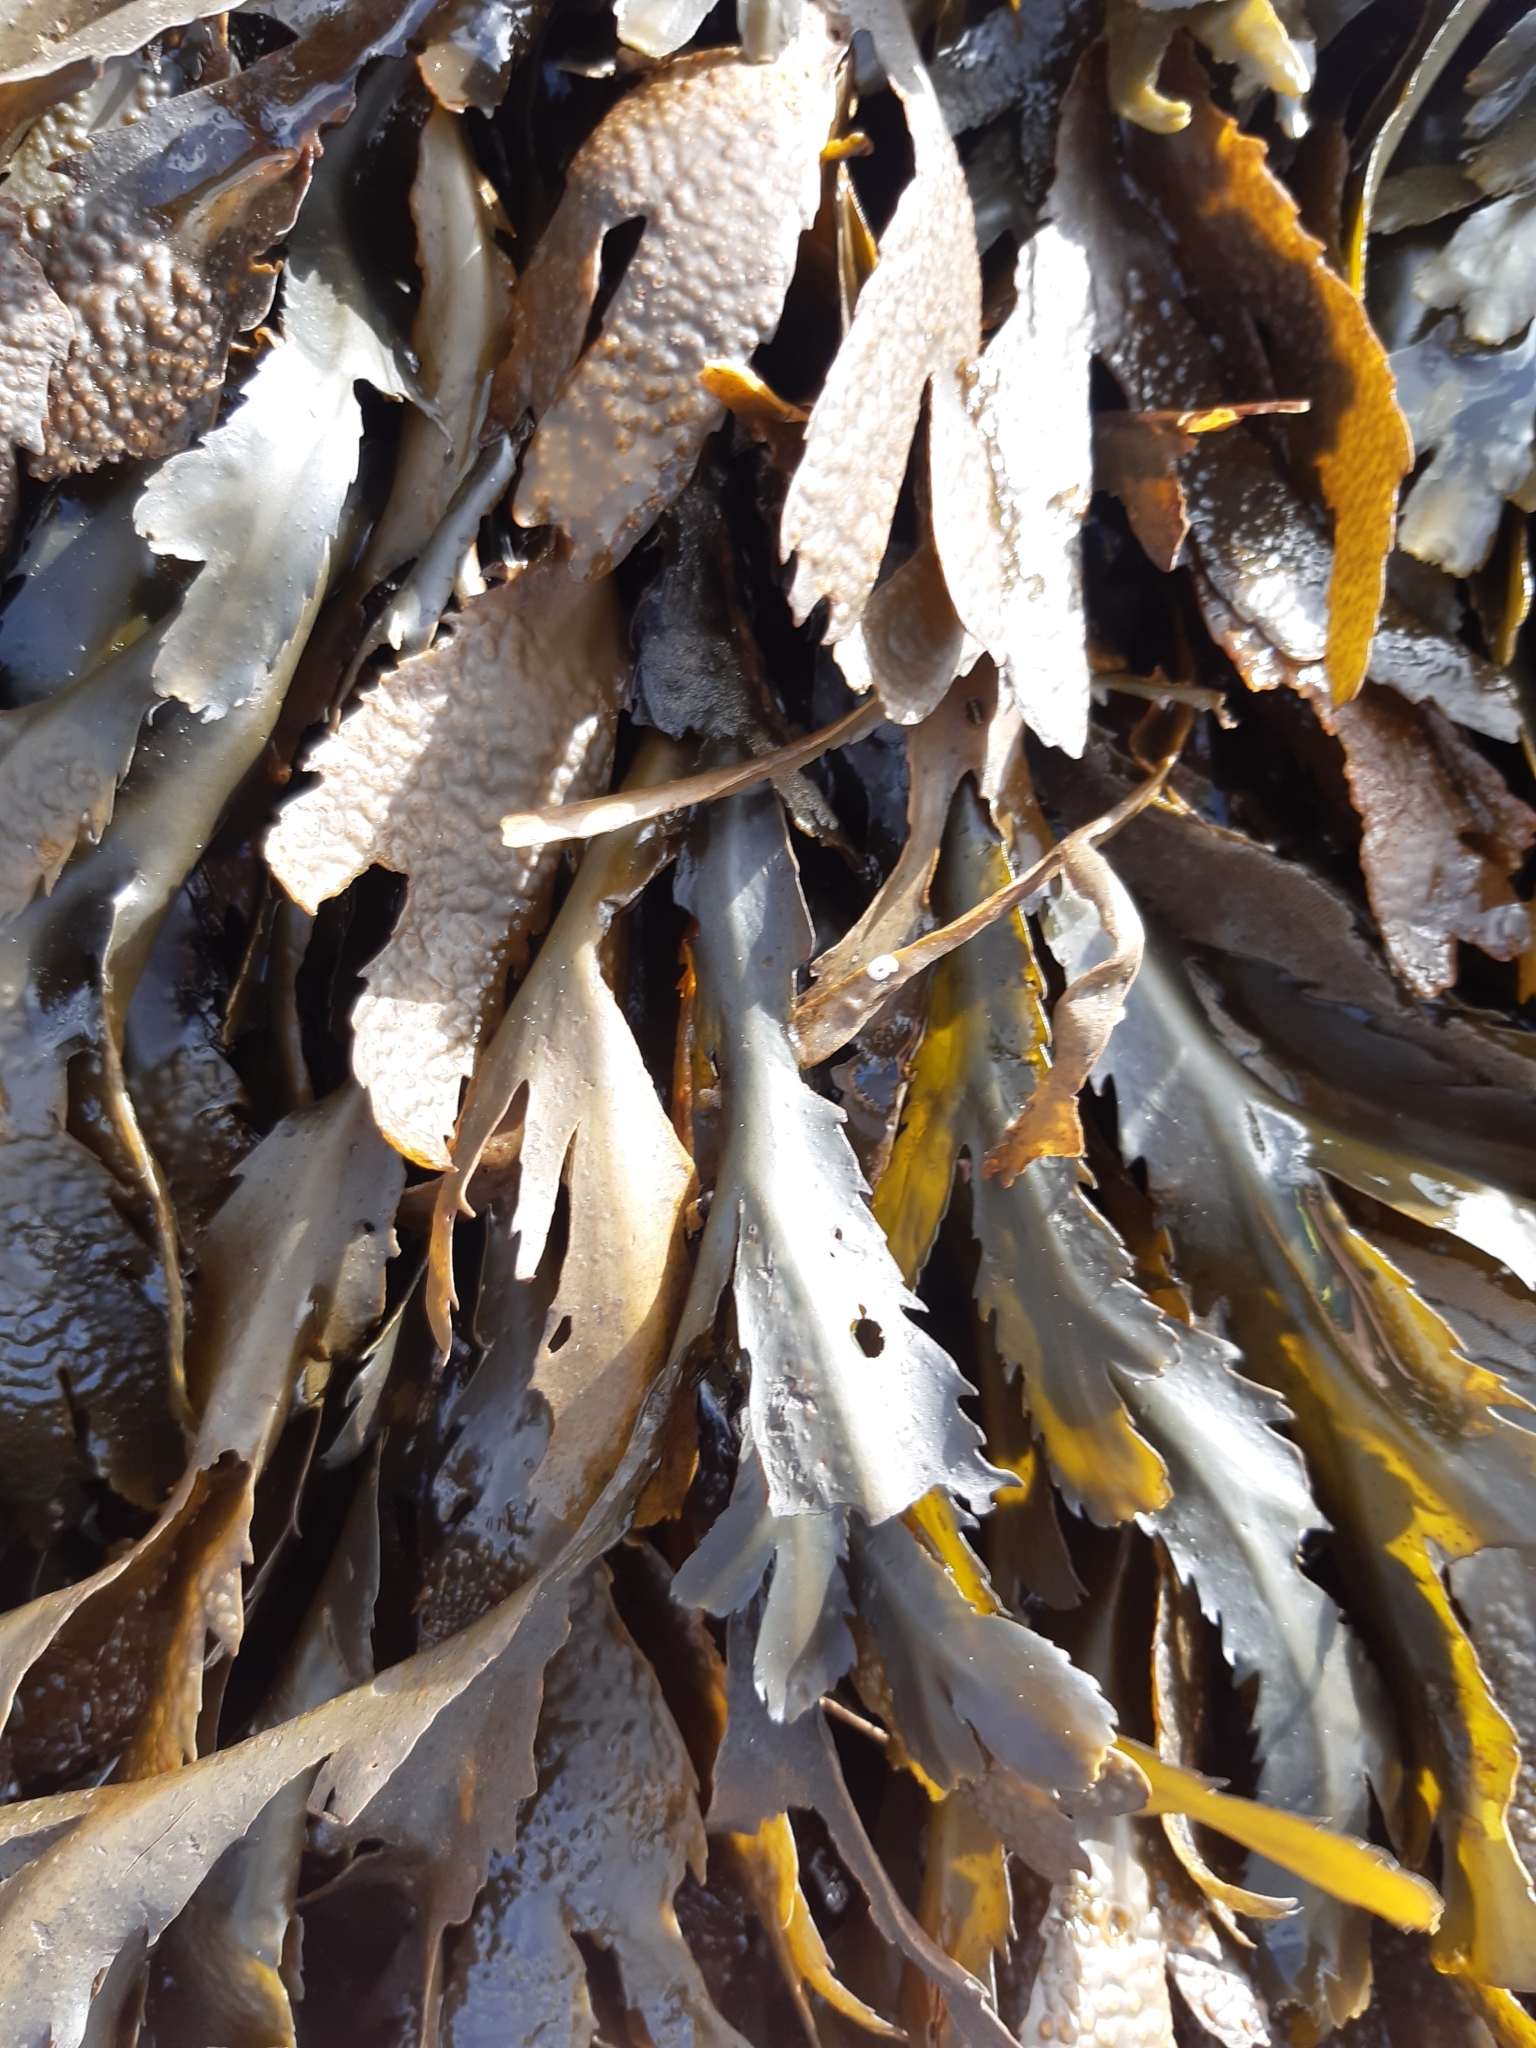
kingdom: Chromista
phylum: Ochrophyta
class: Phaeophyceae
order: Fucales
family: Fucaceae
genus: Fucus
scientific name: Fucus serratus
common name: Toothed wrack
